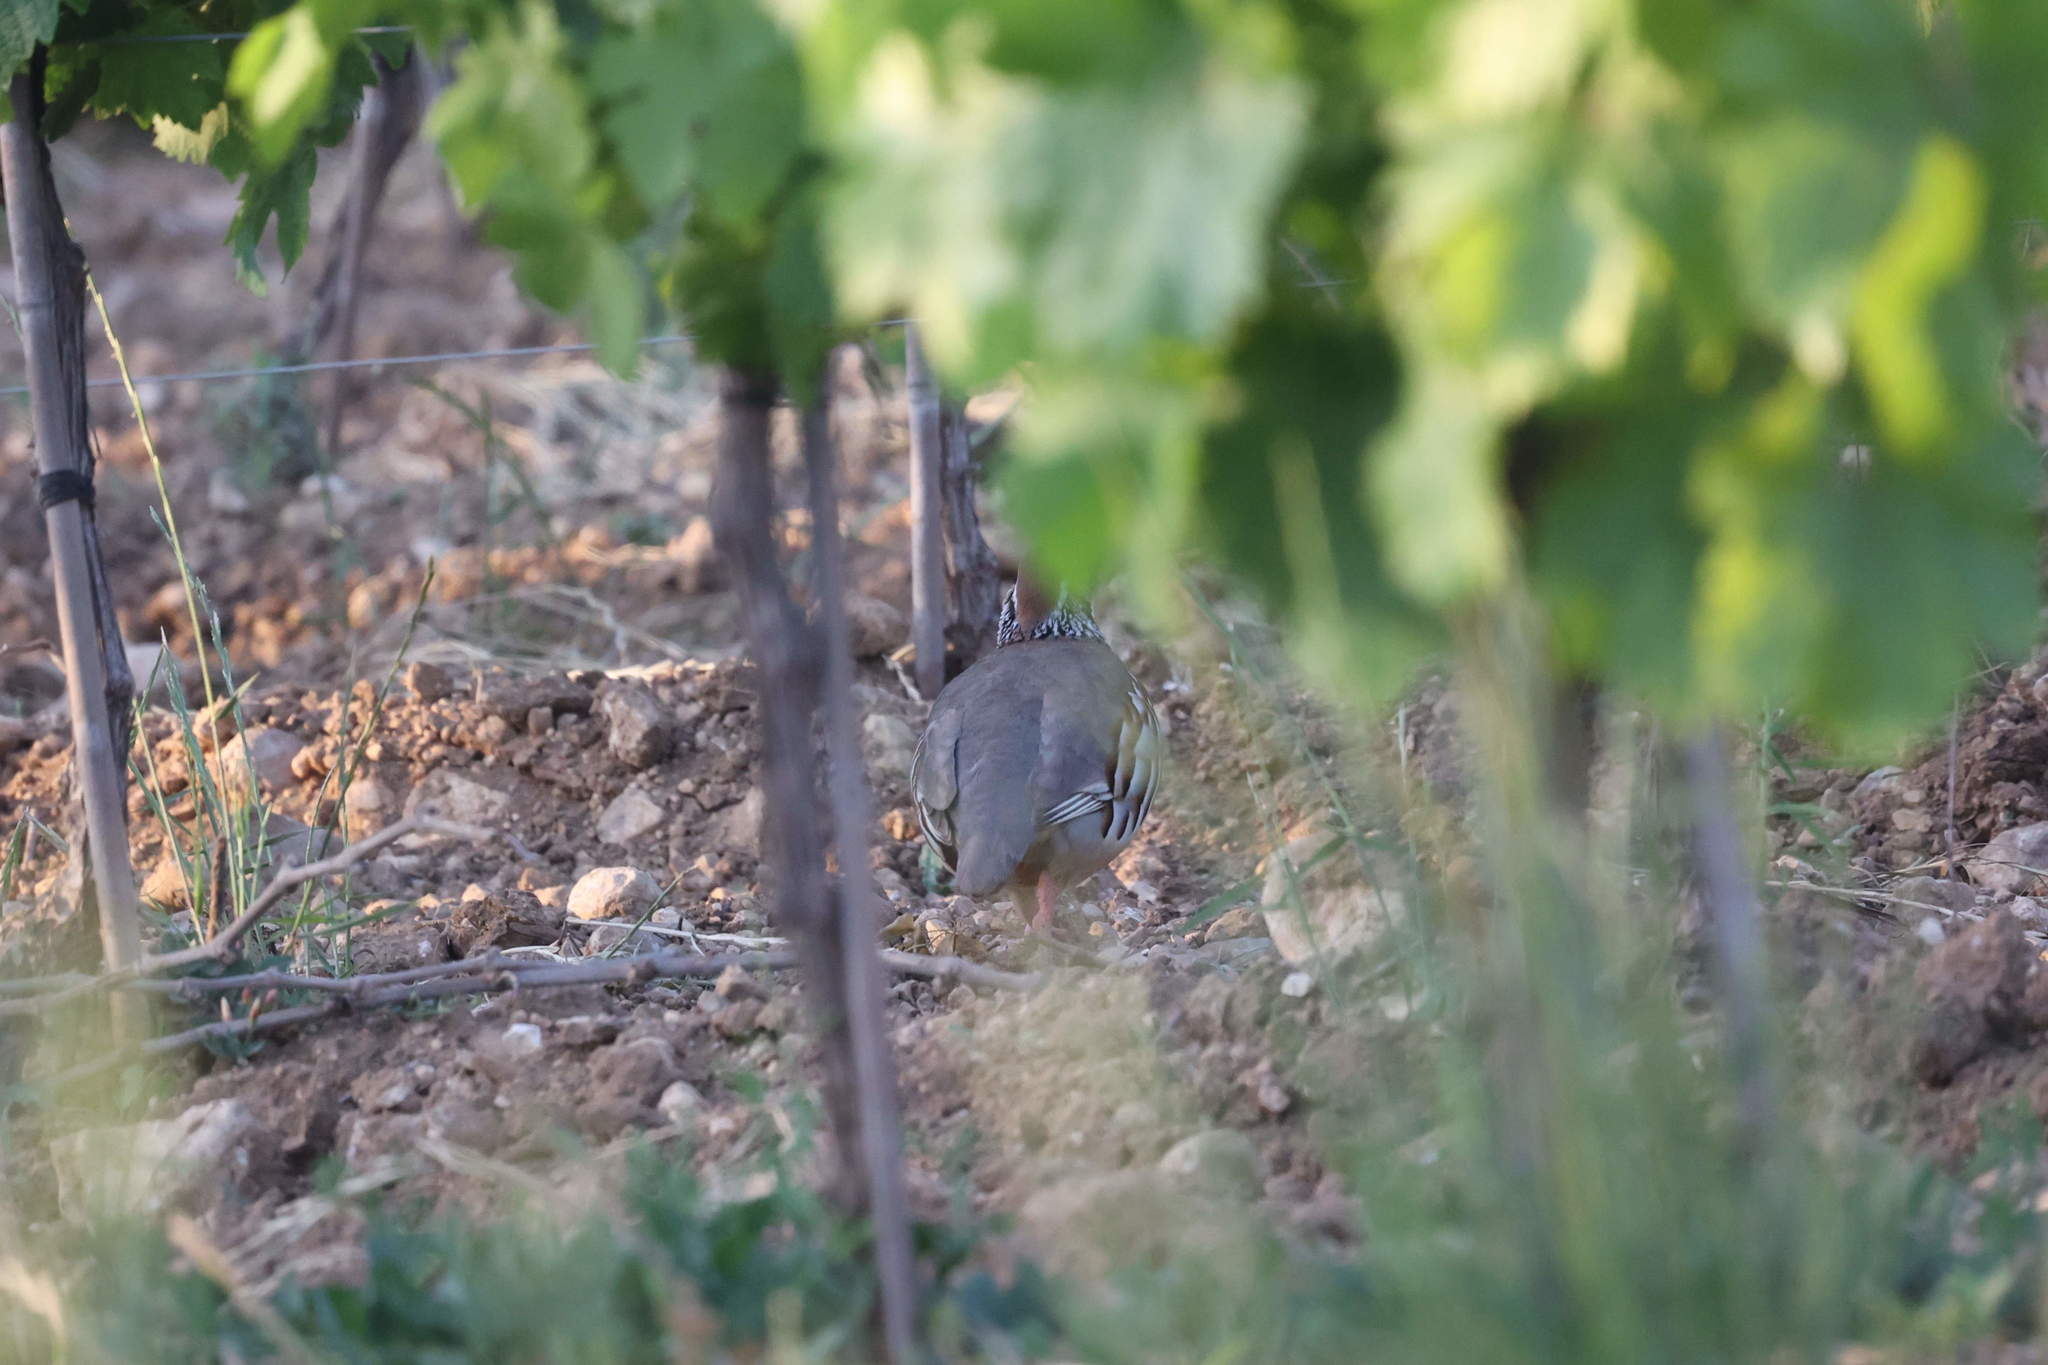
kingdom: Animalia
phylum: Chordata
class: Aves
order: Galliformes
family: Phasianidae
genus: Alectoris
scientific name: Alectoris rufa
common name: Red-legged partridge
